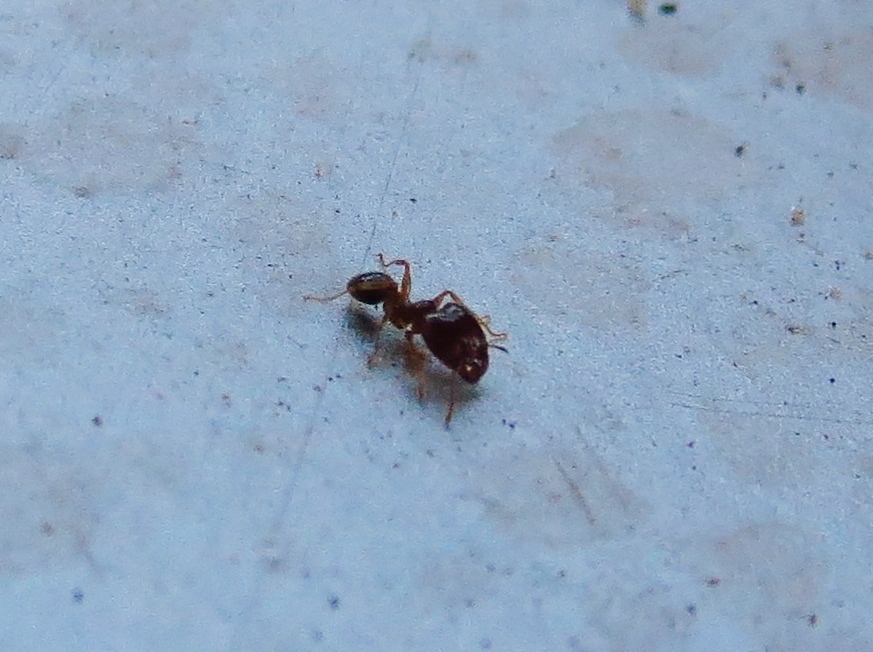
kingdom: Animalia
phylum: Arthropoda
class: Insecta
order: Hymenoptera
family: Formicidae
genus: Pheidole
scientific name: Pheidole megacephala
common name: Bigheaded ant
